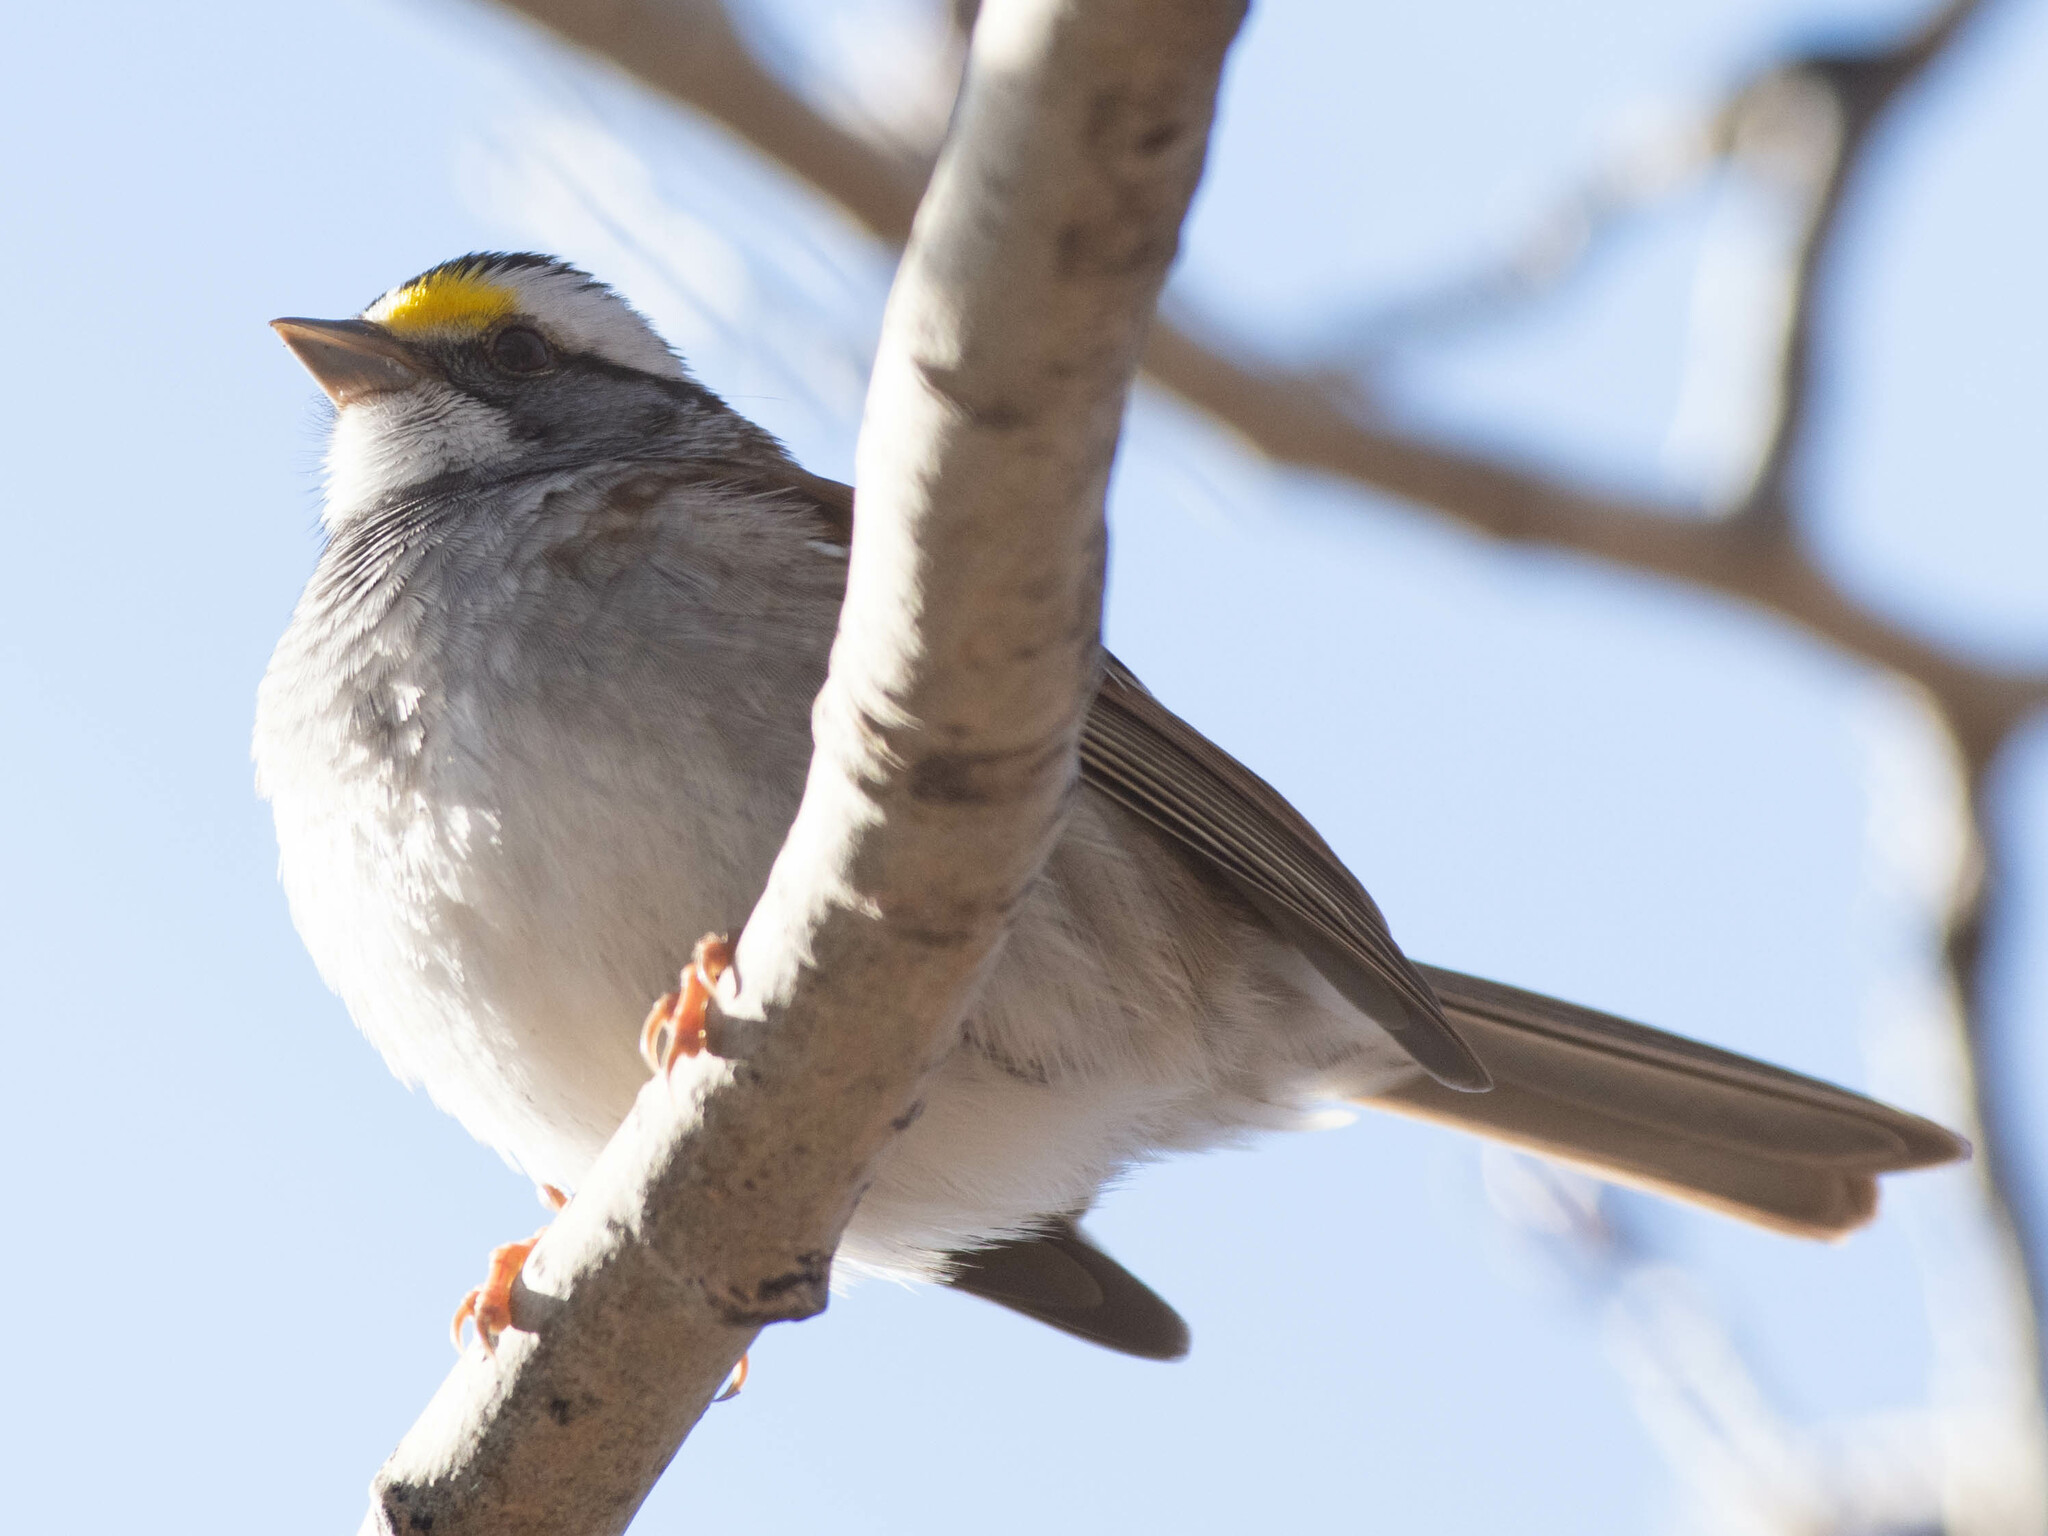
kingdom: Animalia
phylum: Chordata
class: Aves
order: Passeriformes
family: Passerellidae
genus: Zonotrichia
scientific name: Zonotrichia albicollis
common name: White-throated sparrow
